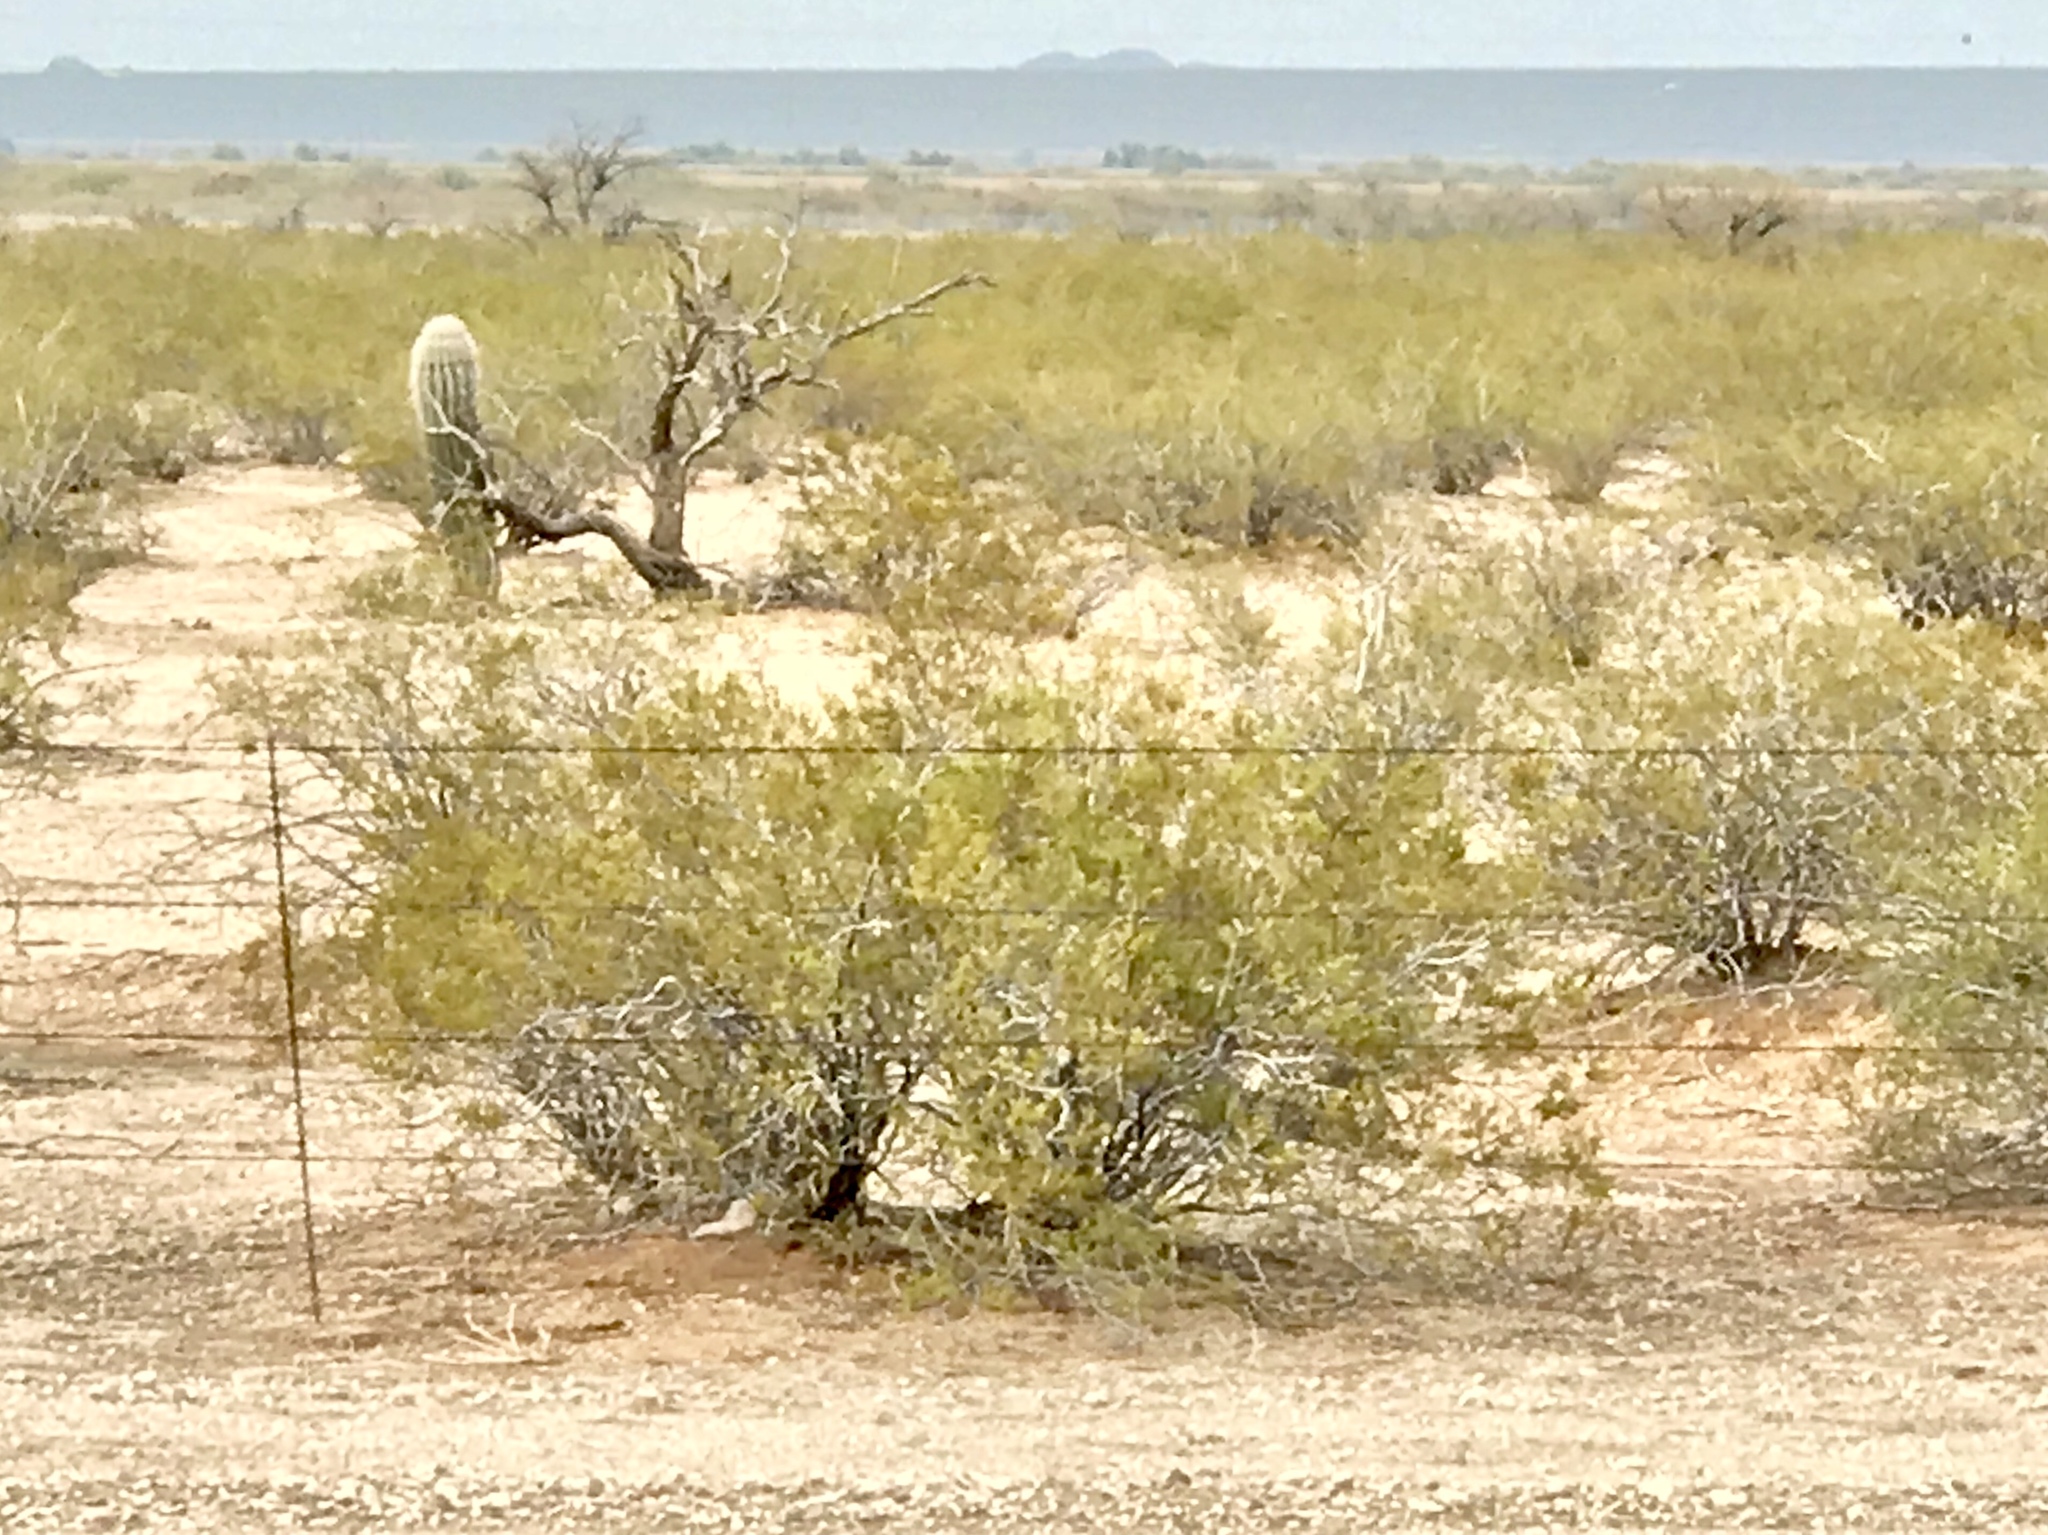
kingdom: Plantae
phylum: Tracheophyta
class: Magnoliopsida
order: Zygophyllales
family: Zygophyllaceae
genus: Larrea
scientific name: Larrea tridentata
